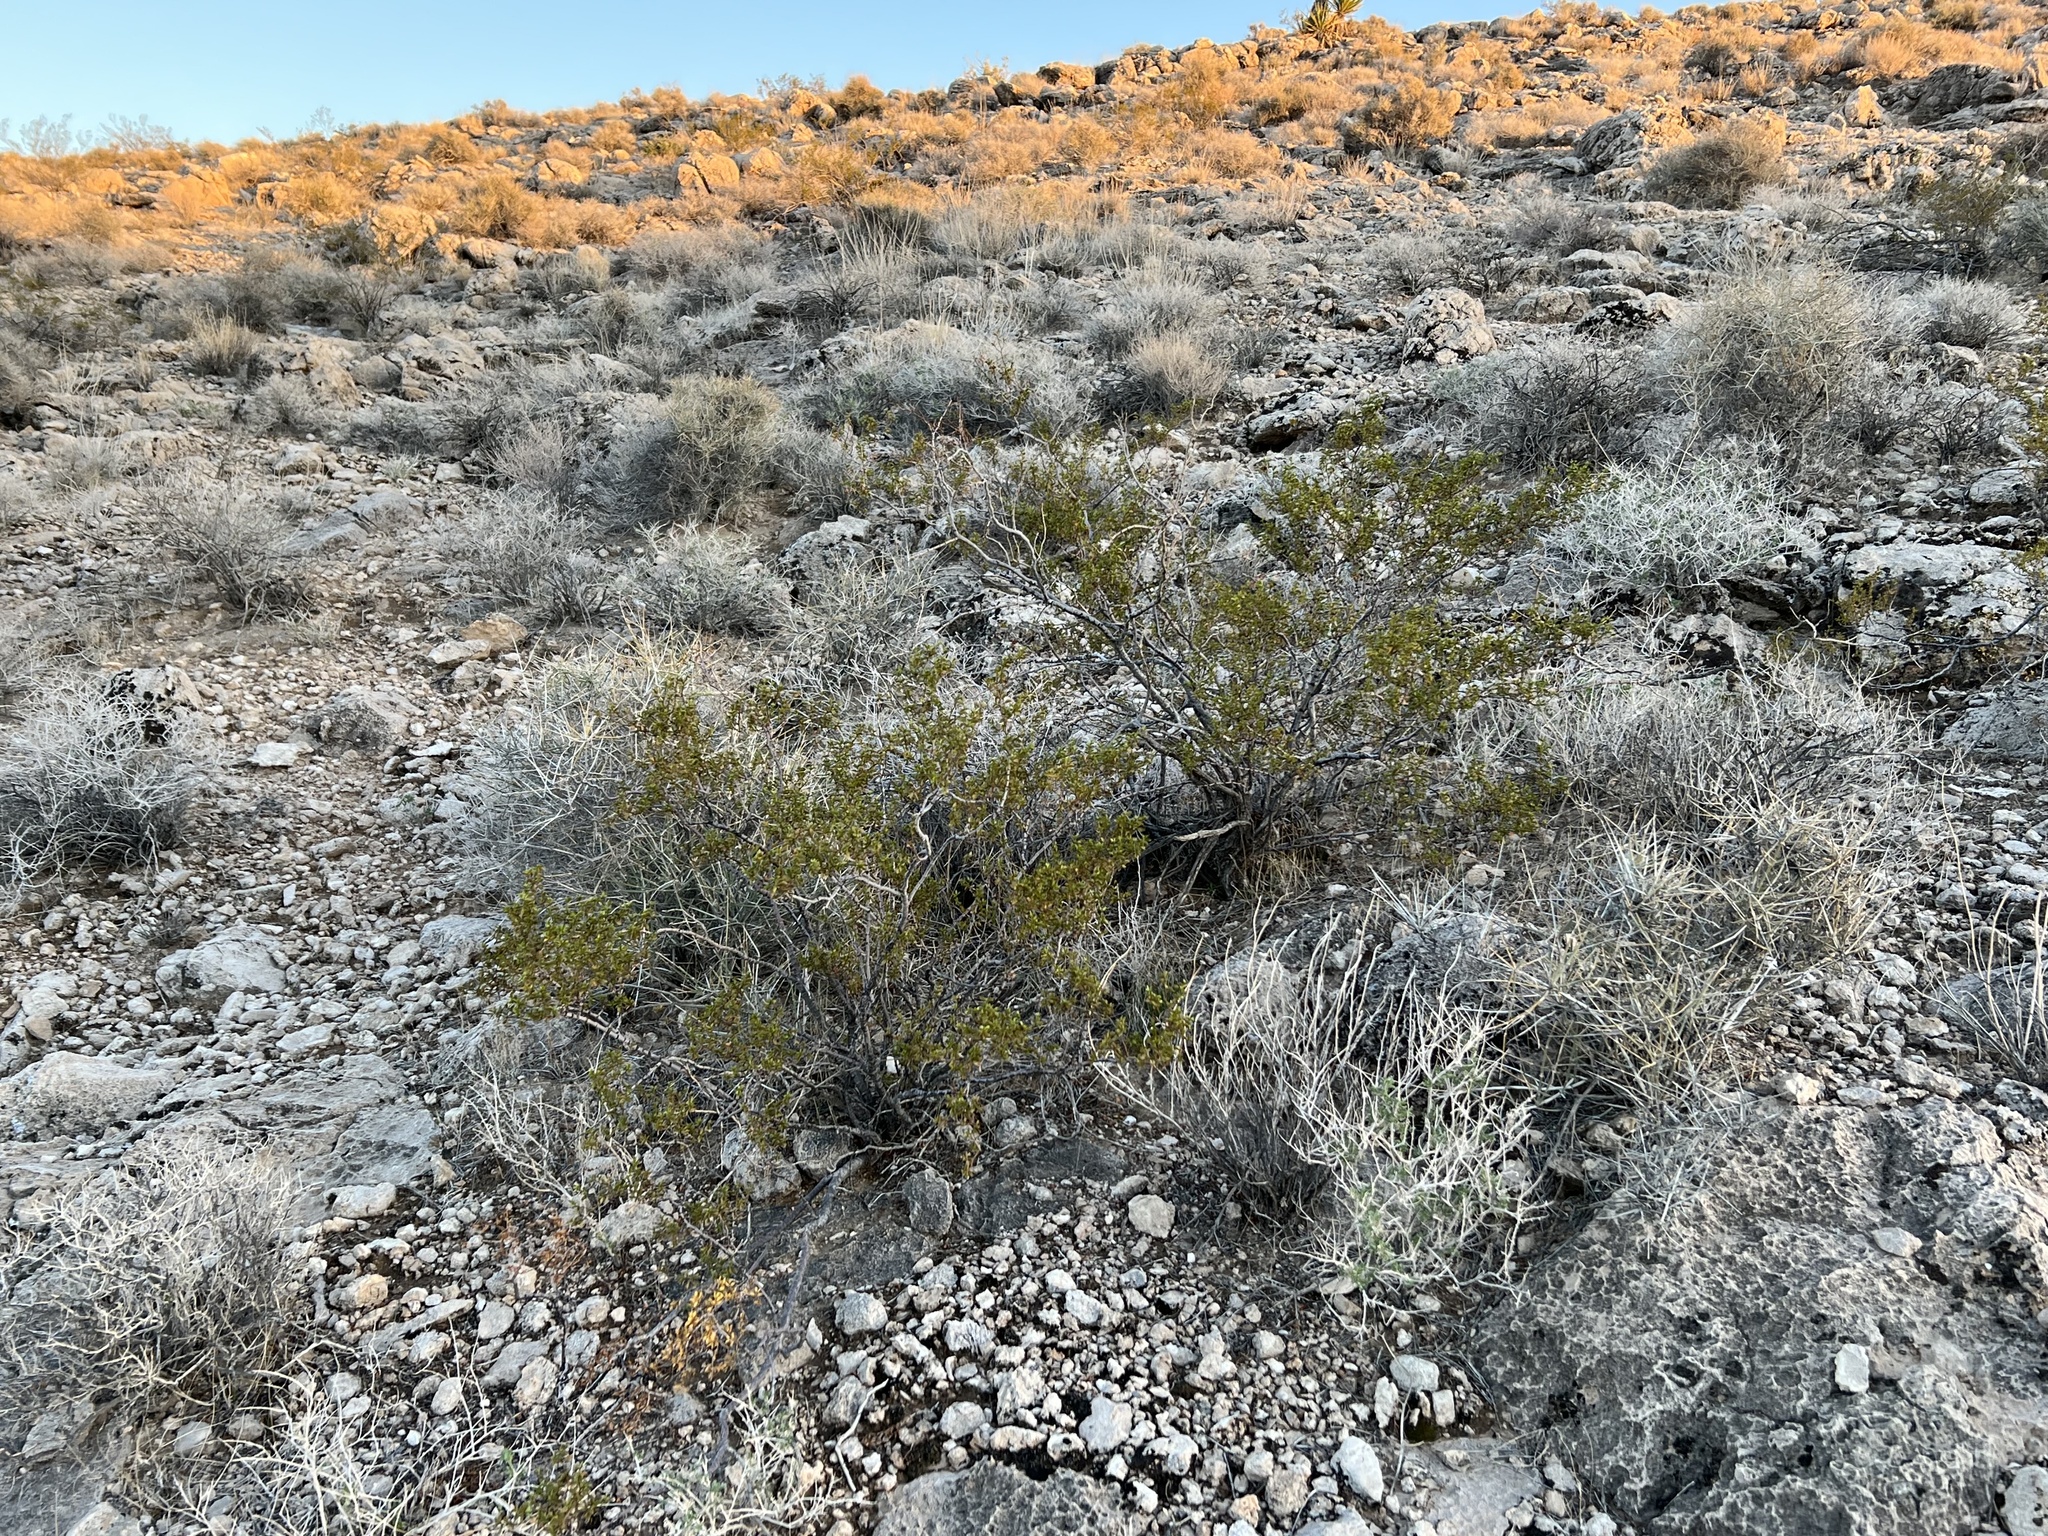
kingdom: Plantae
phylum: Tracheophyta
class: Magnoliopsida
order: Zygophyllales
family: Zygophyllaceae
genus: Larrea
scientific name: Larrea tridentata
